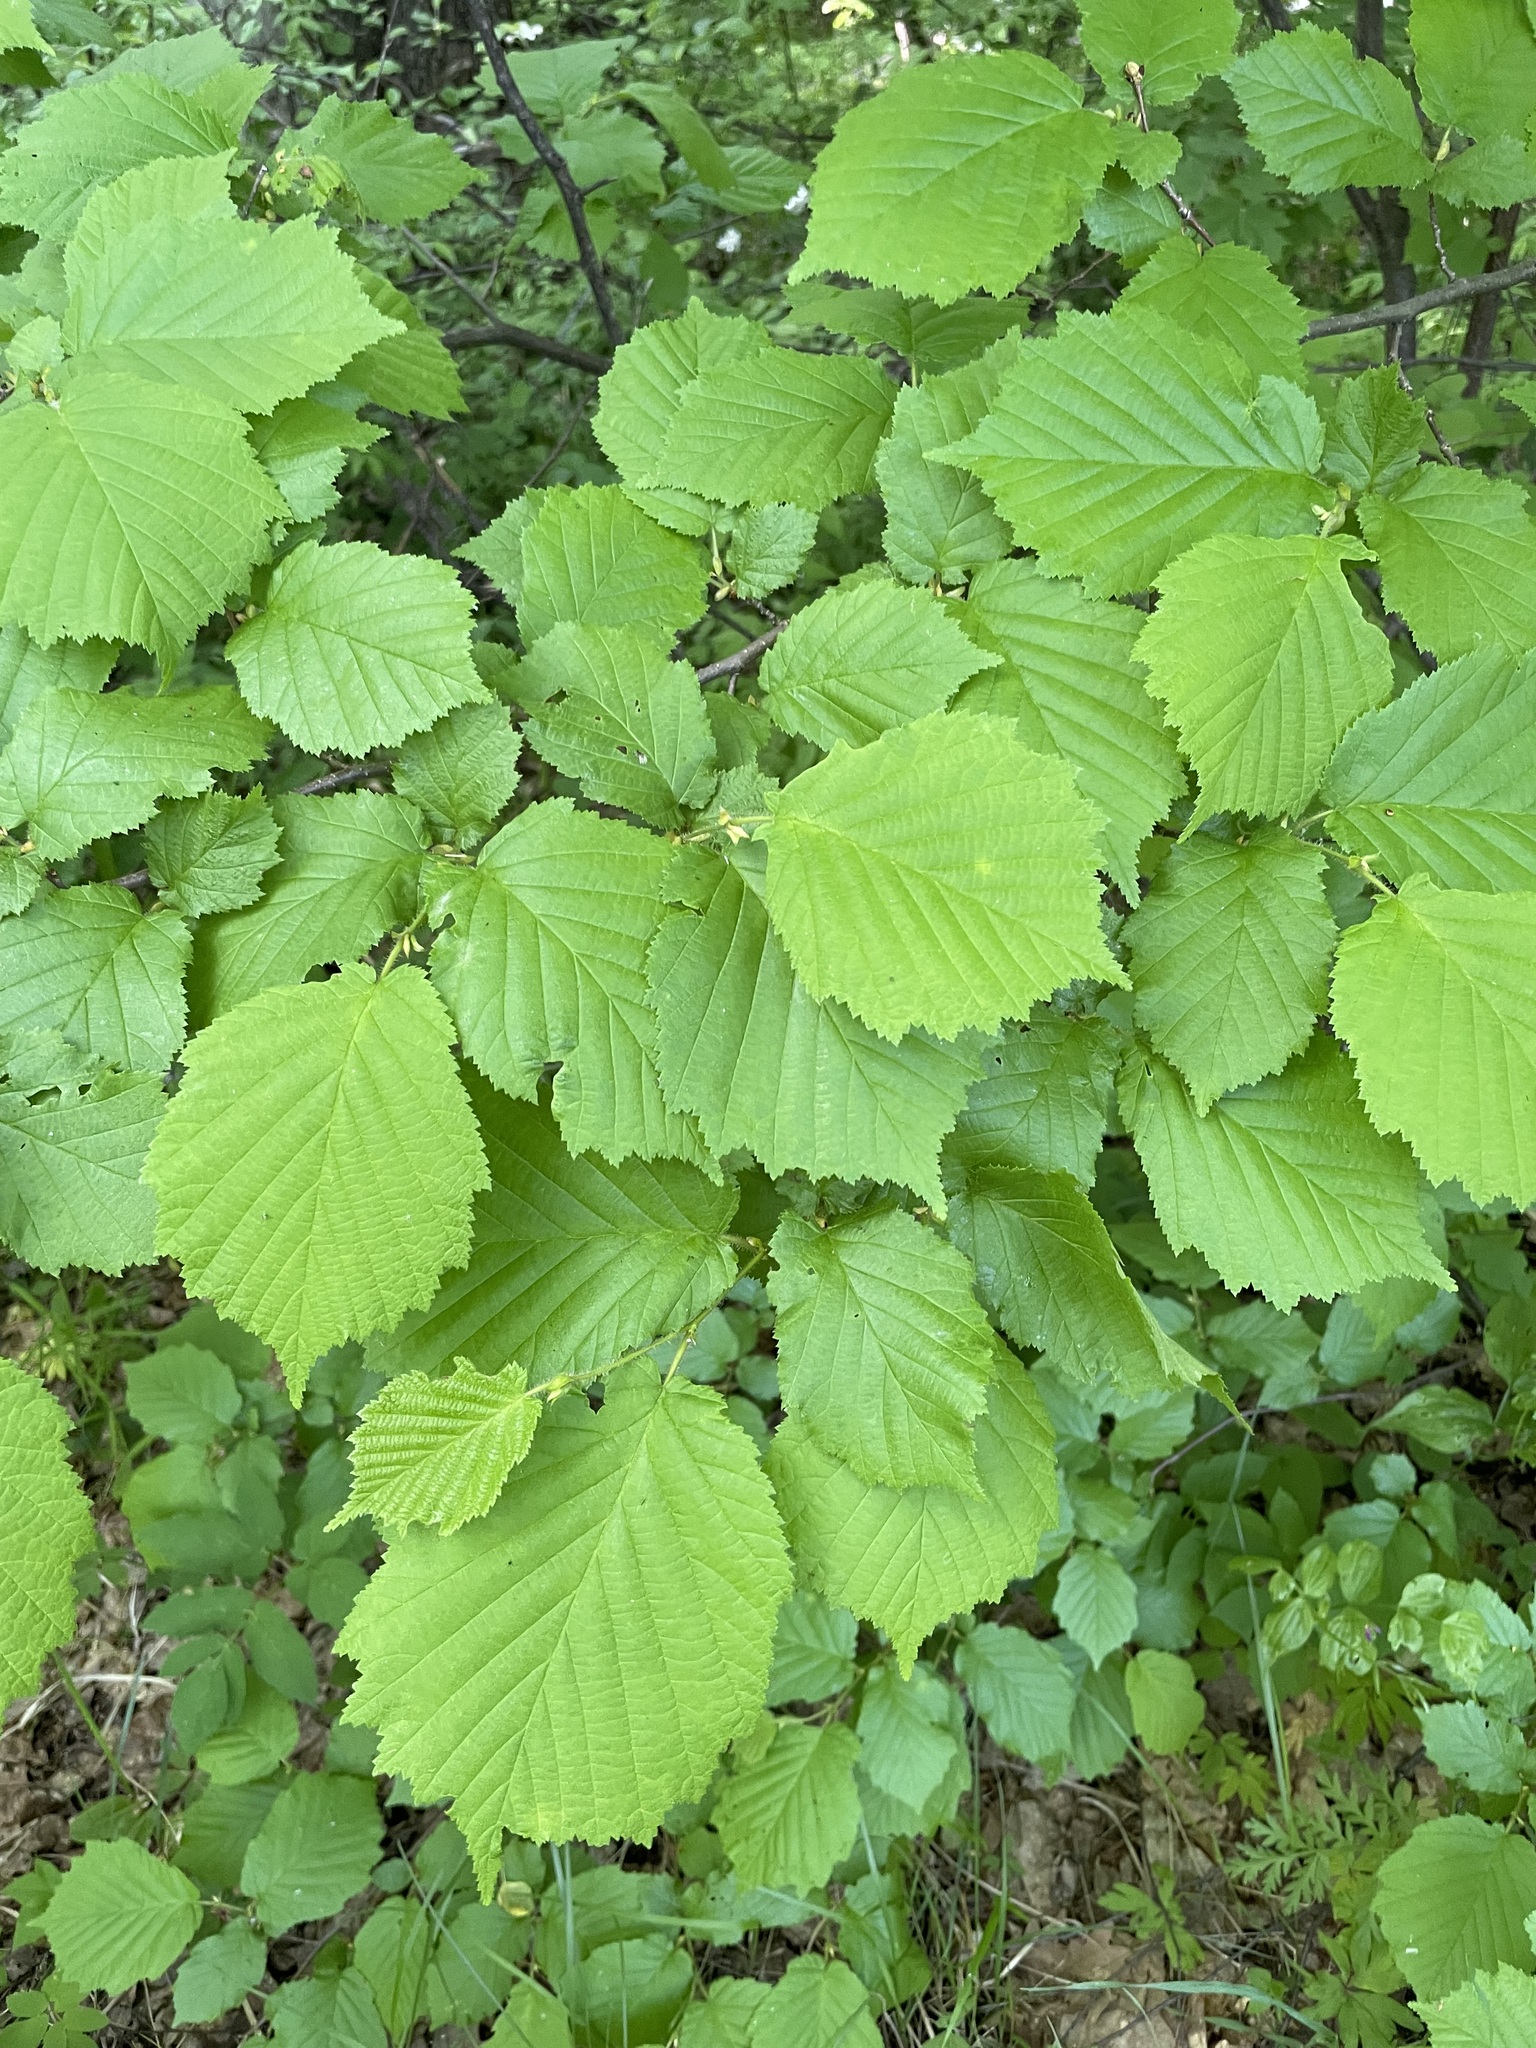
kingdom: Plantae
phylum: Tracheophyta
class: Magnoliopsida
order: Fagales
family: Betulaceae
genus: Corylus
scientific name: Corylus avellana
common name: European hazel
